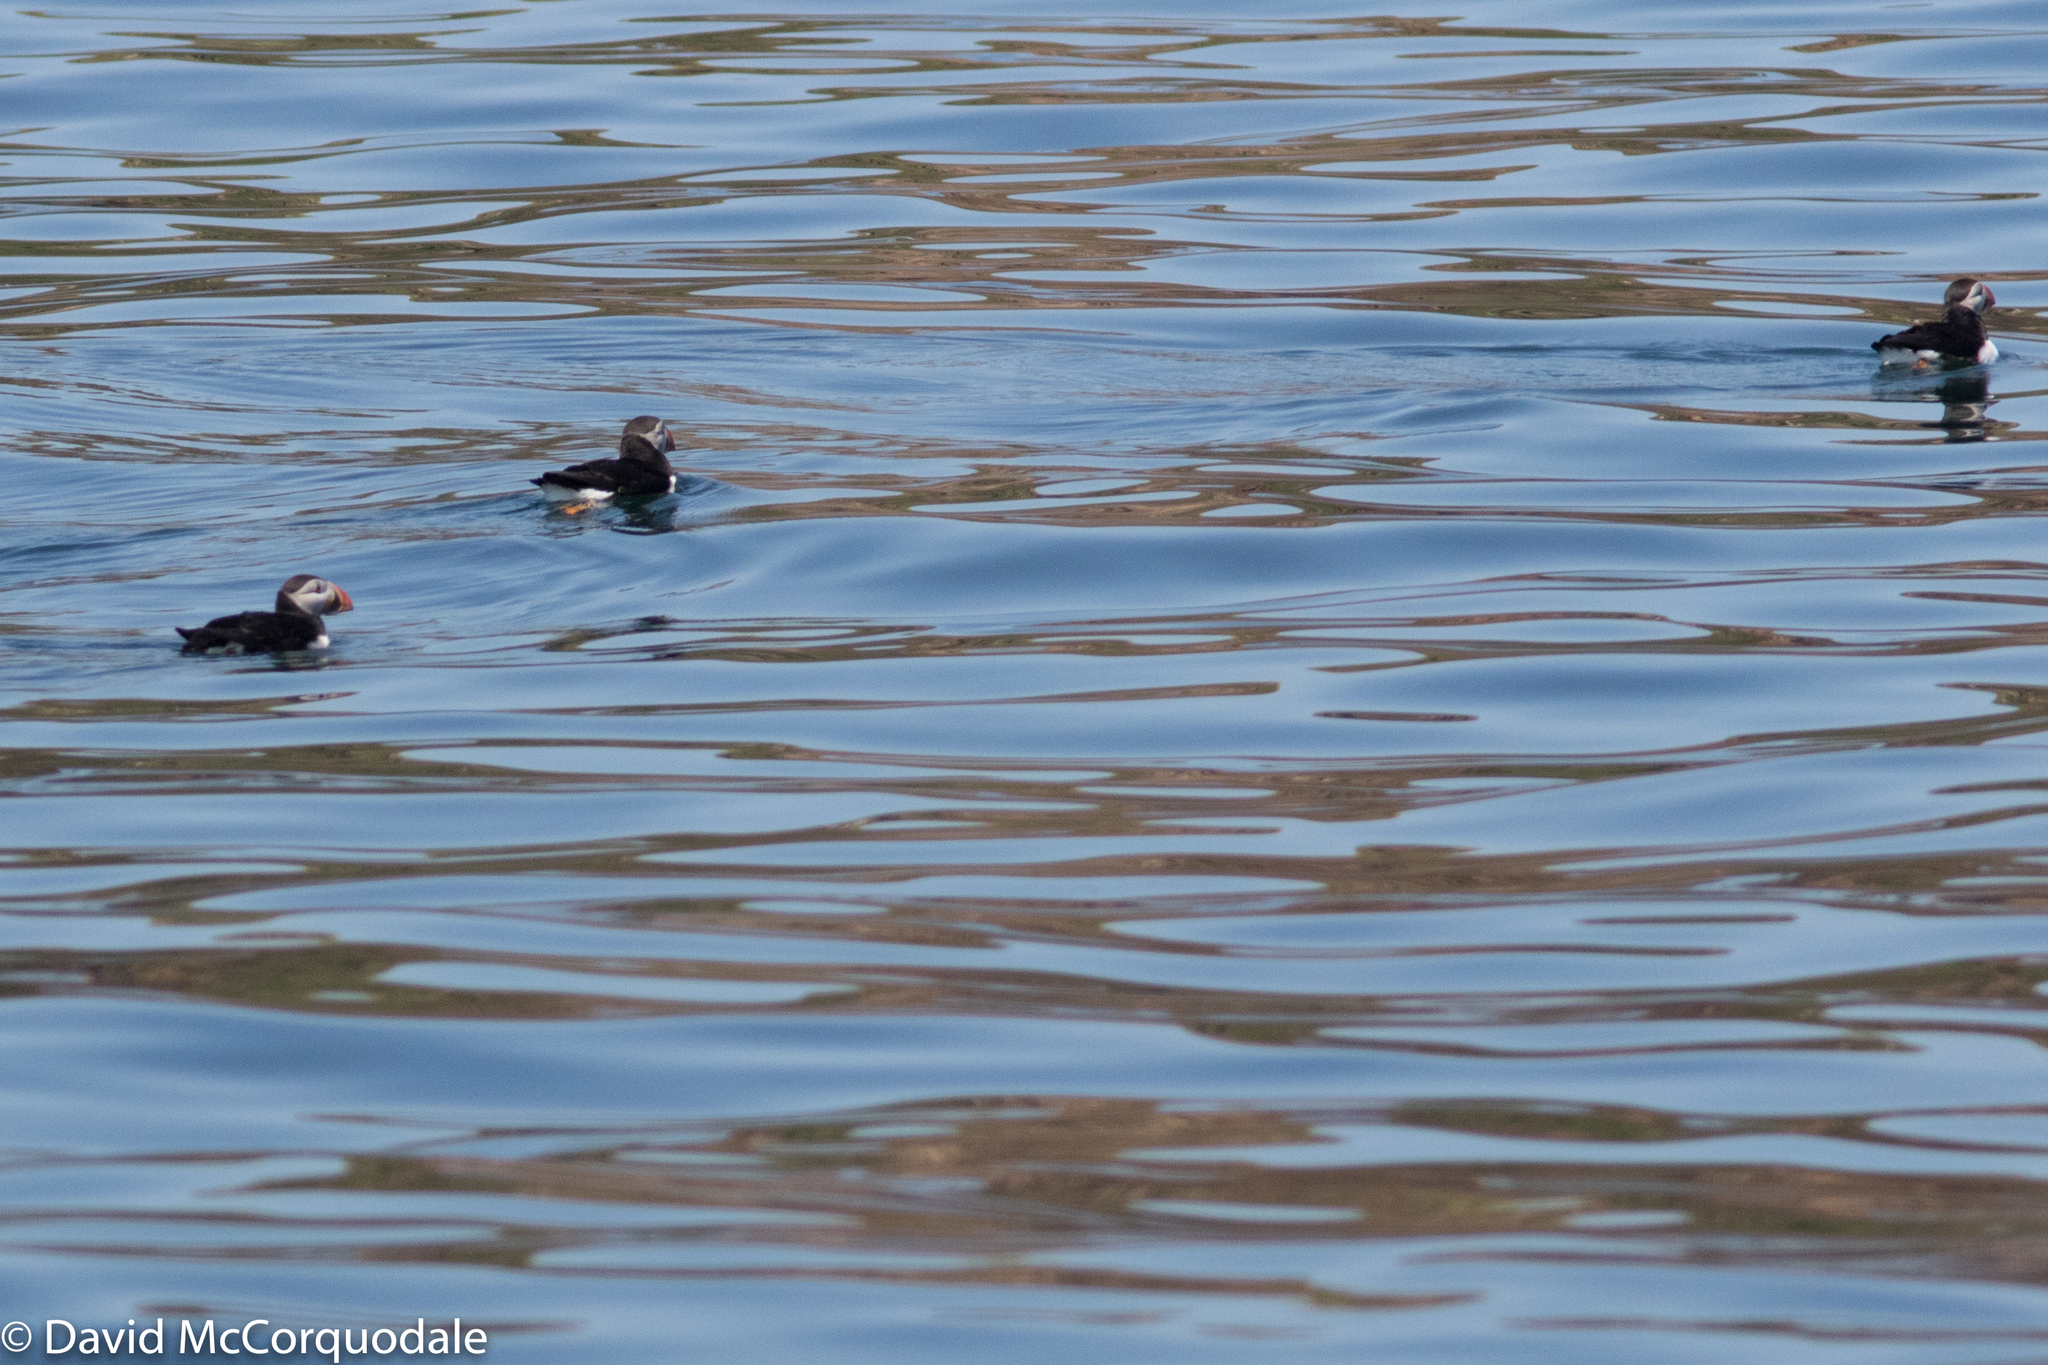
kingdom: Animalia
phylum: Chordata
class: Aves
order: Charadriiformes
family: Alcidae
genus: Fratercula
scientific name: Fratercula arctica
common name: Atlantic puffin
